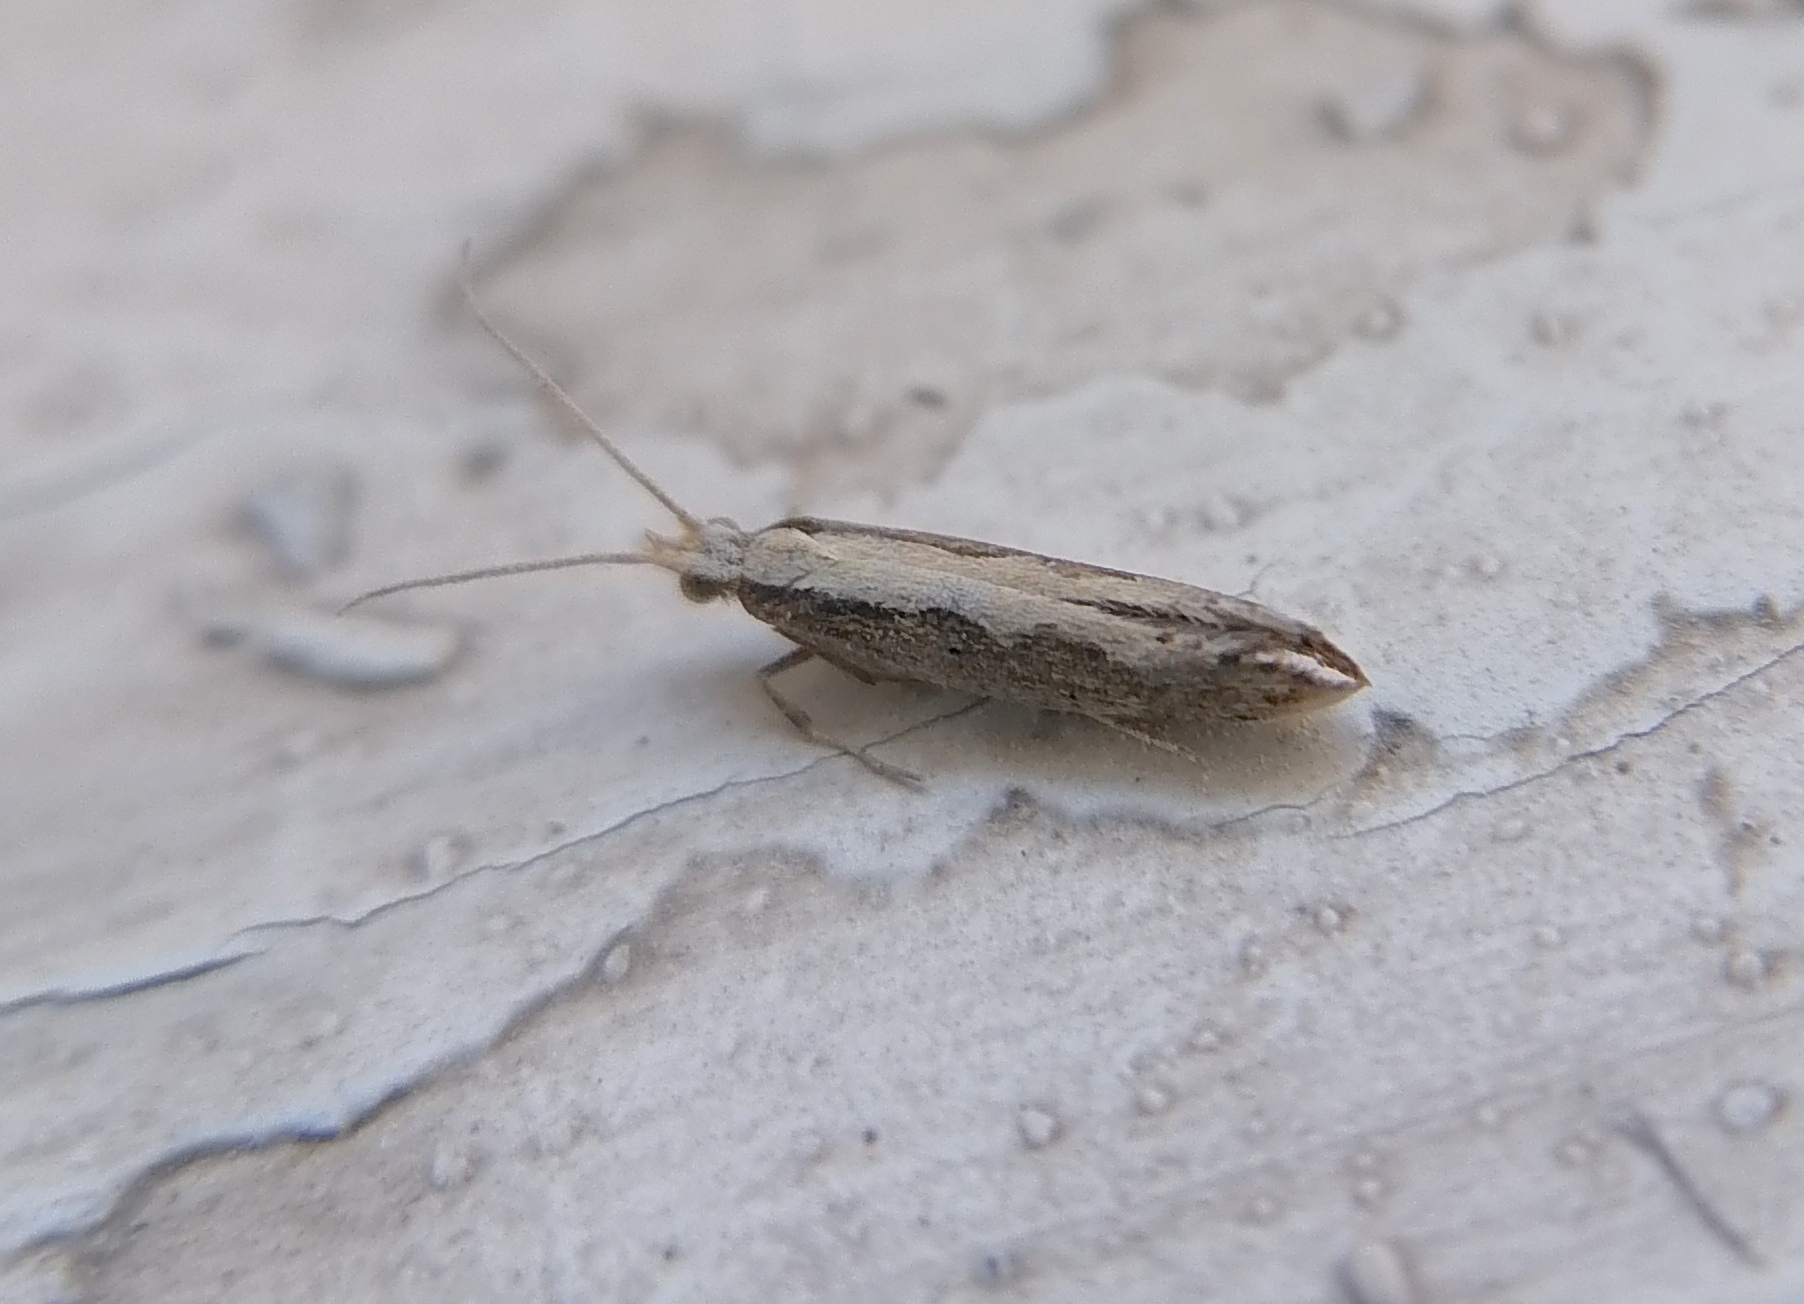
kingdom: Animalia
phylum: Arthropoda
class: Insecta
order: Lepidoptera
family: Plutellidae
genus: Plutella
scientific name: Plutella xylostella
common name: Diamond-back moth
